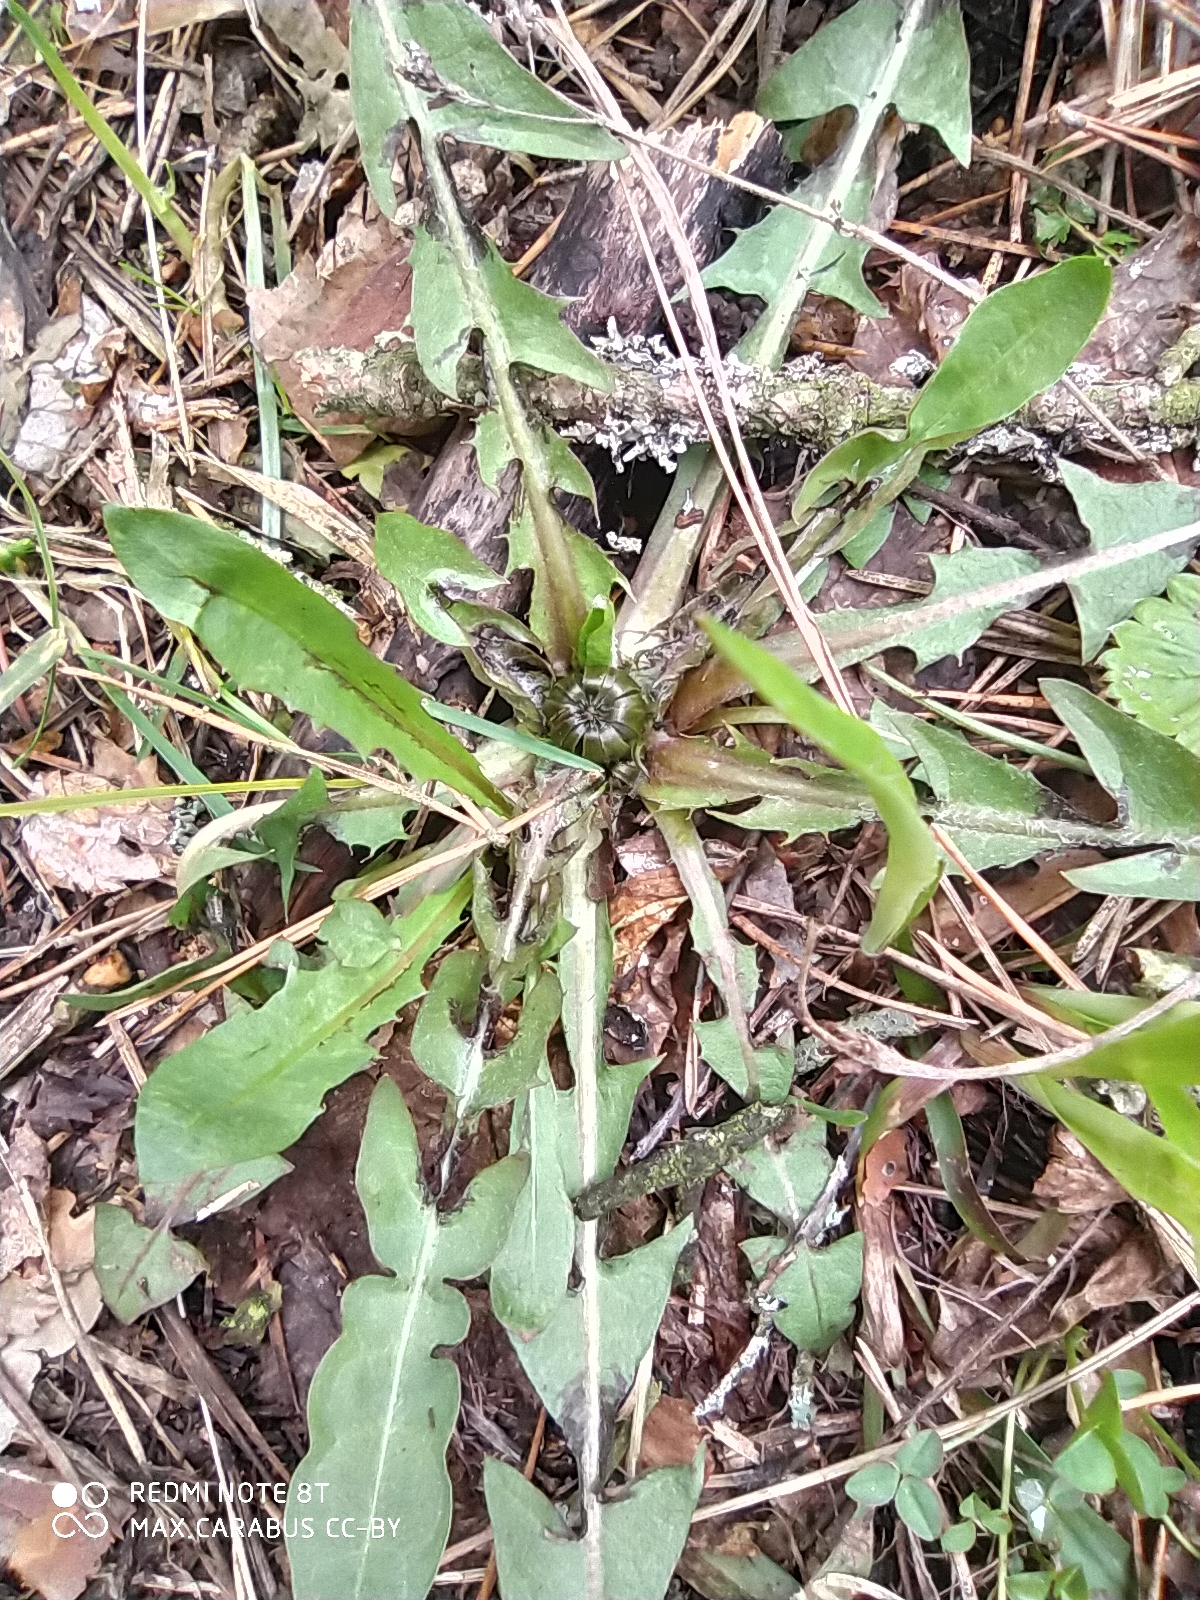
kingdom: Plantae
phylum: Tracheophyta
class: Magnoliopsida
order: Asterales
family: Asteraceae
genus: Taraxacum
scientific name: Taraxacum officinale
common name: Common dandelion
